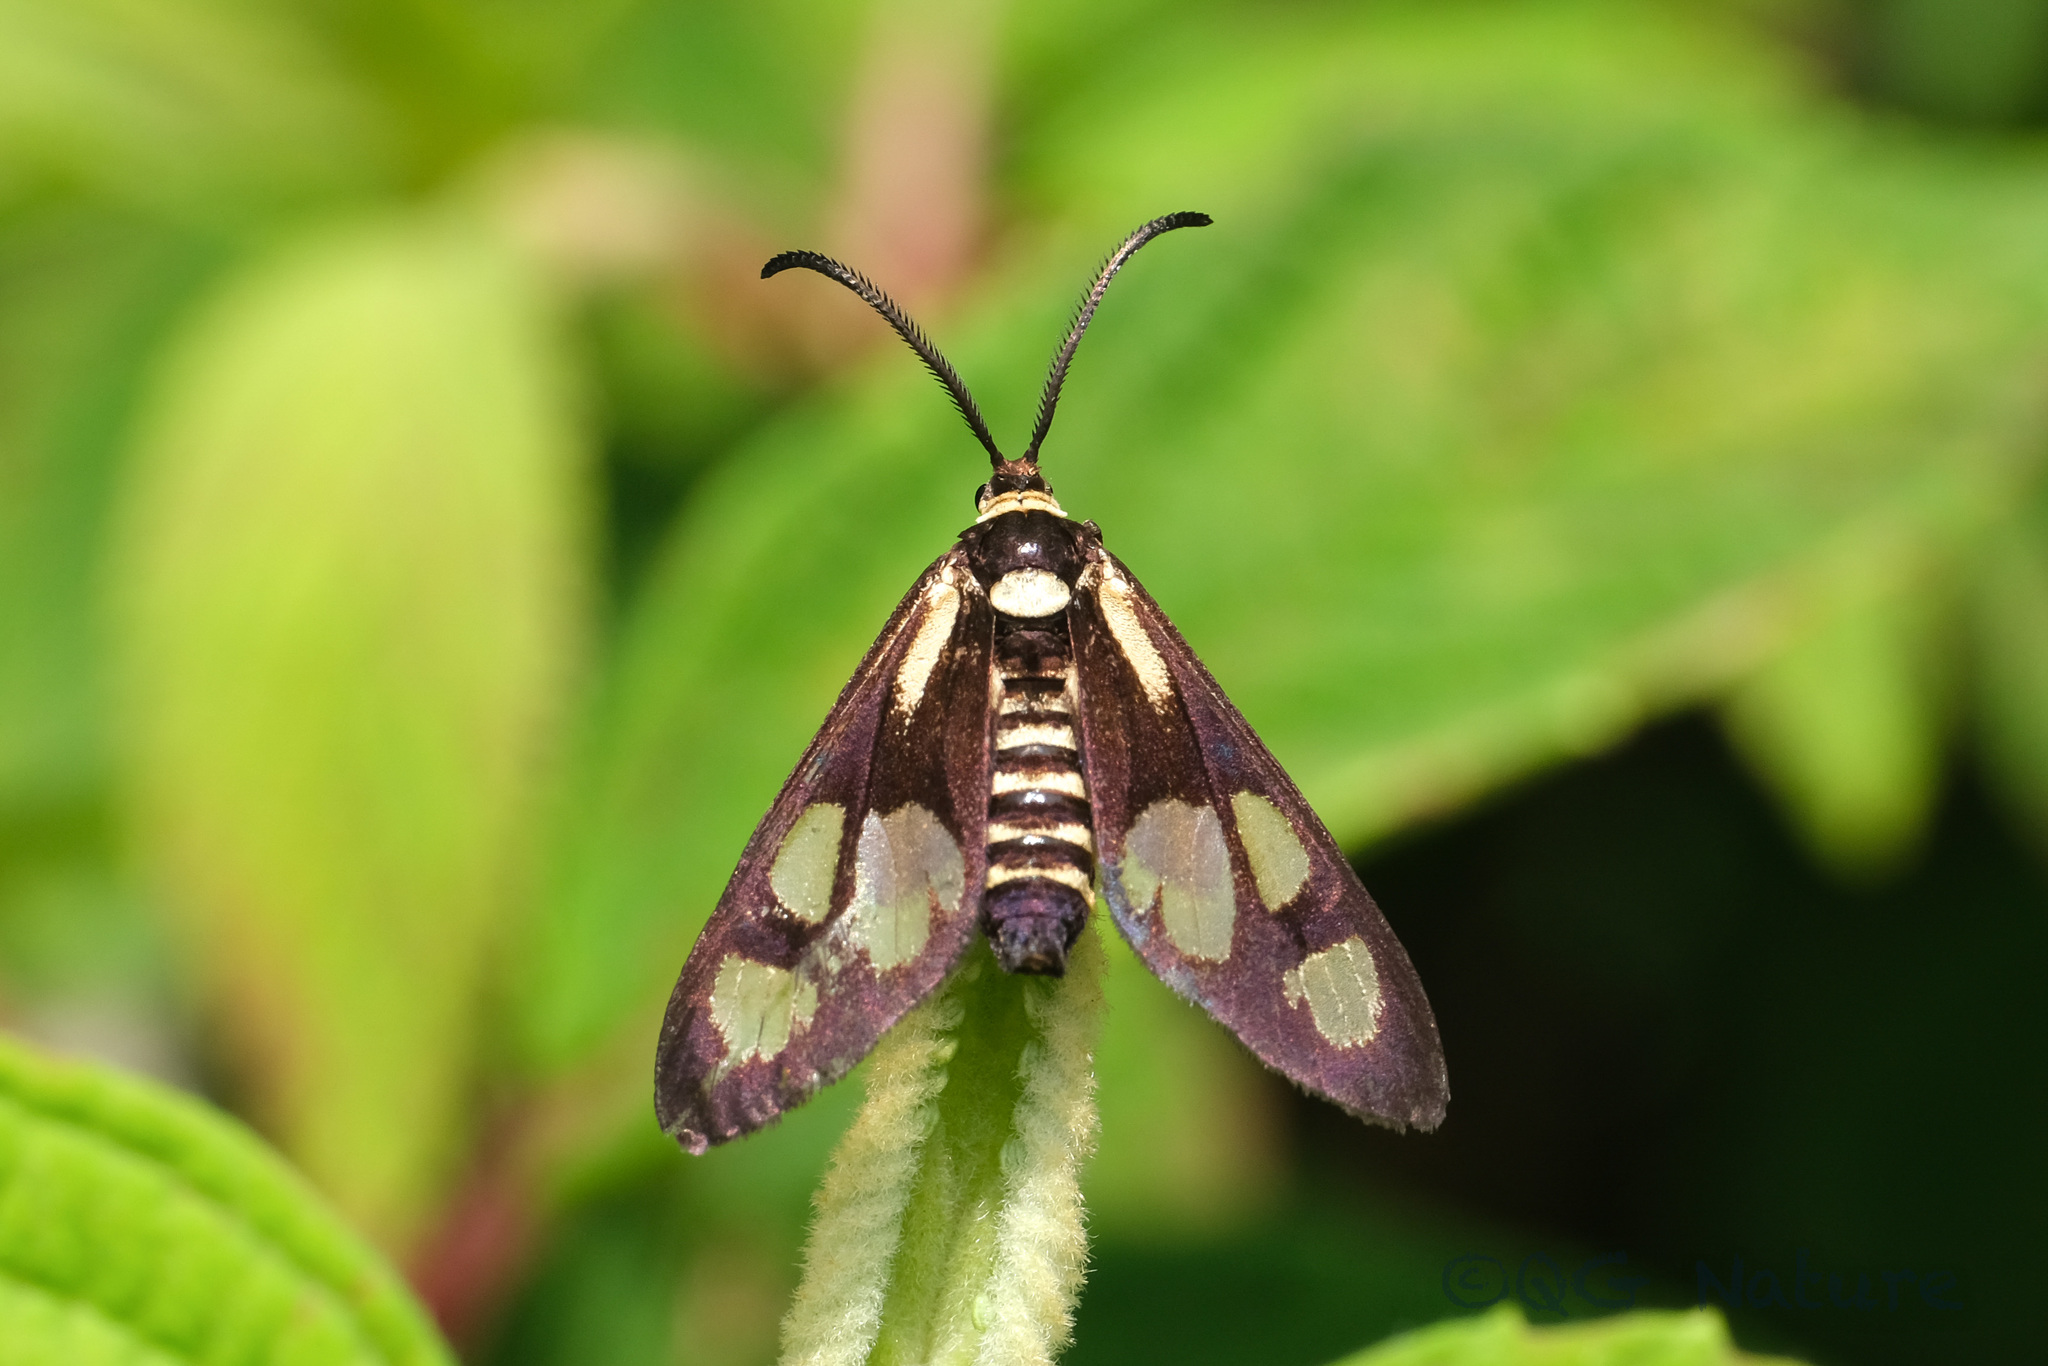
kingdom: Animalia
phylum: Arthropoda
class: Insecta
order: Lepidoptera
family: Zygaenidae
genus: Thyrassia
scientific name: Thyrassia penangae
